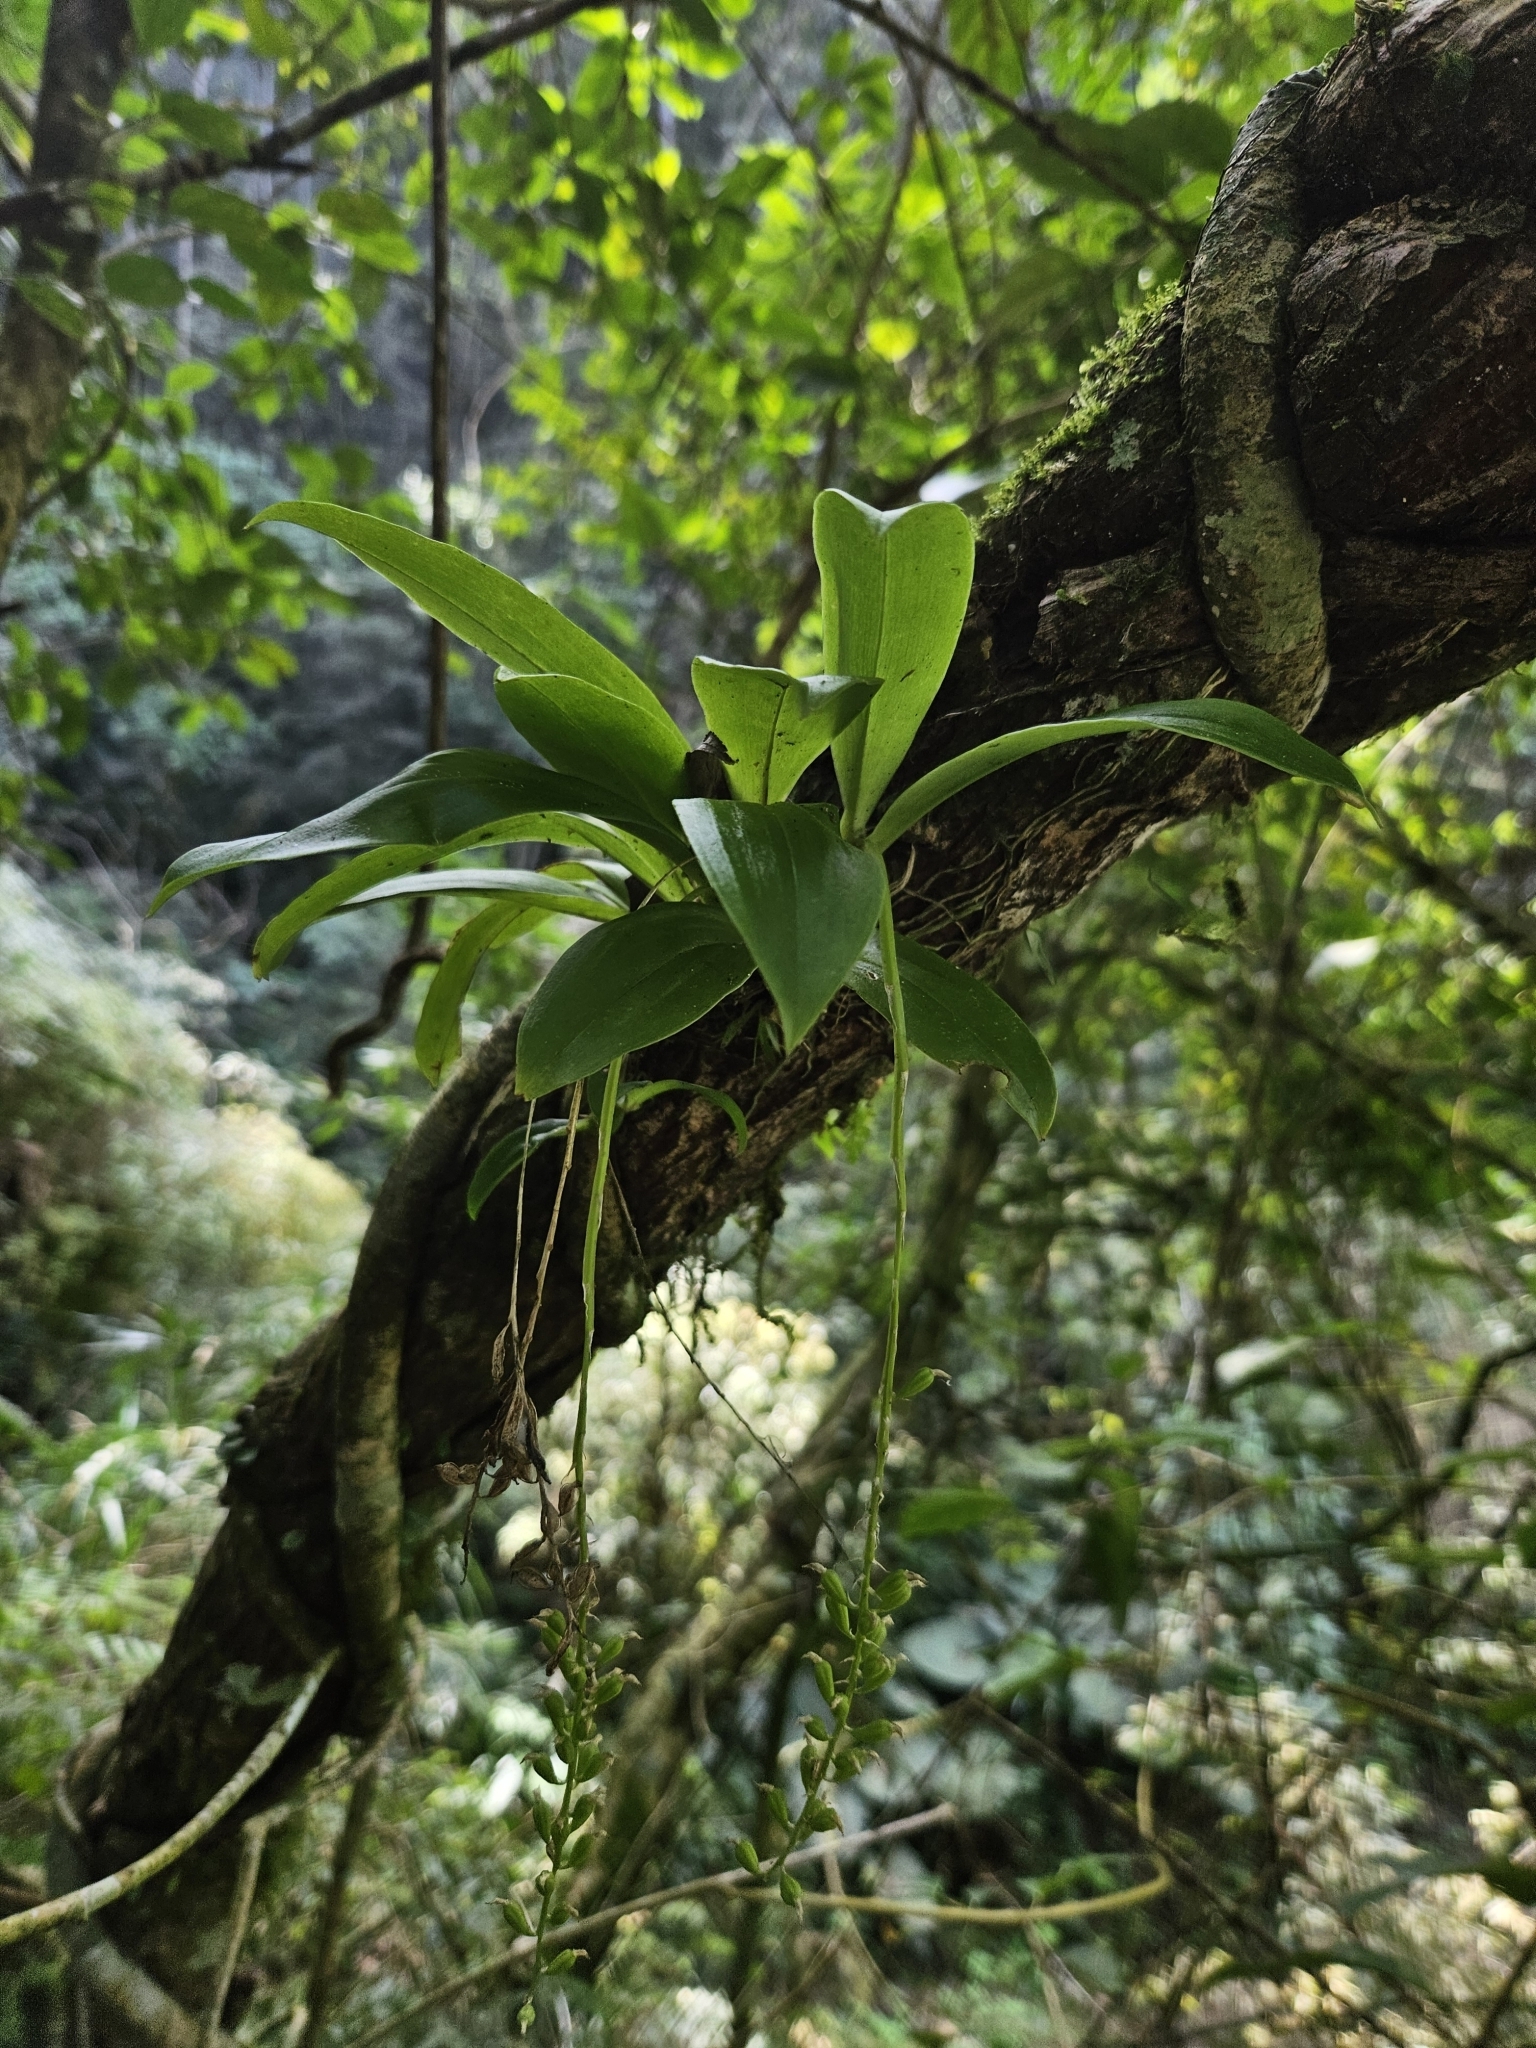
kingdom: Plantae
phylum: Tracheophyta
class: Liliopsida
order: Asparagales
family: Orchidaceae
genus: Liparis
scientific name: Liparis elliptica
